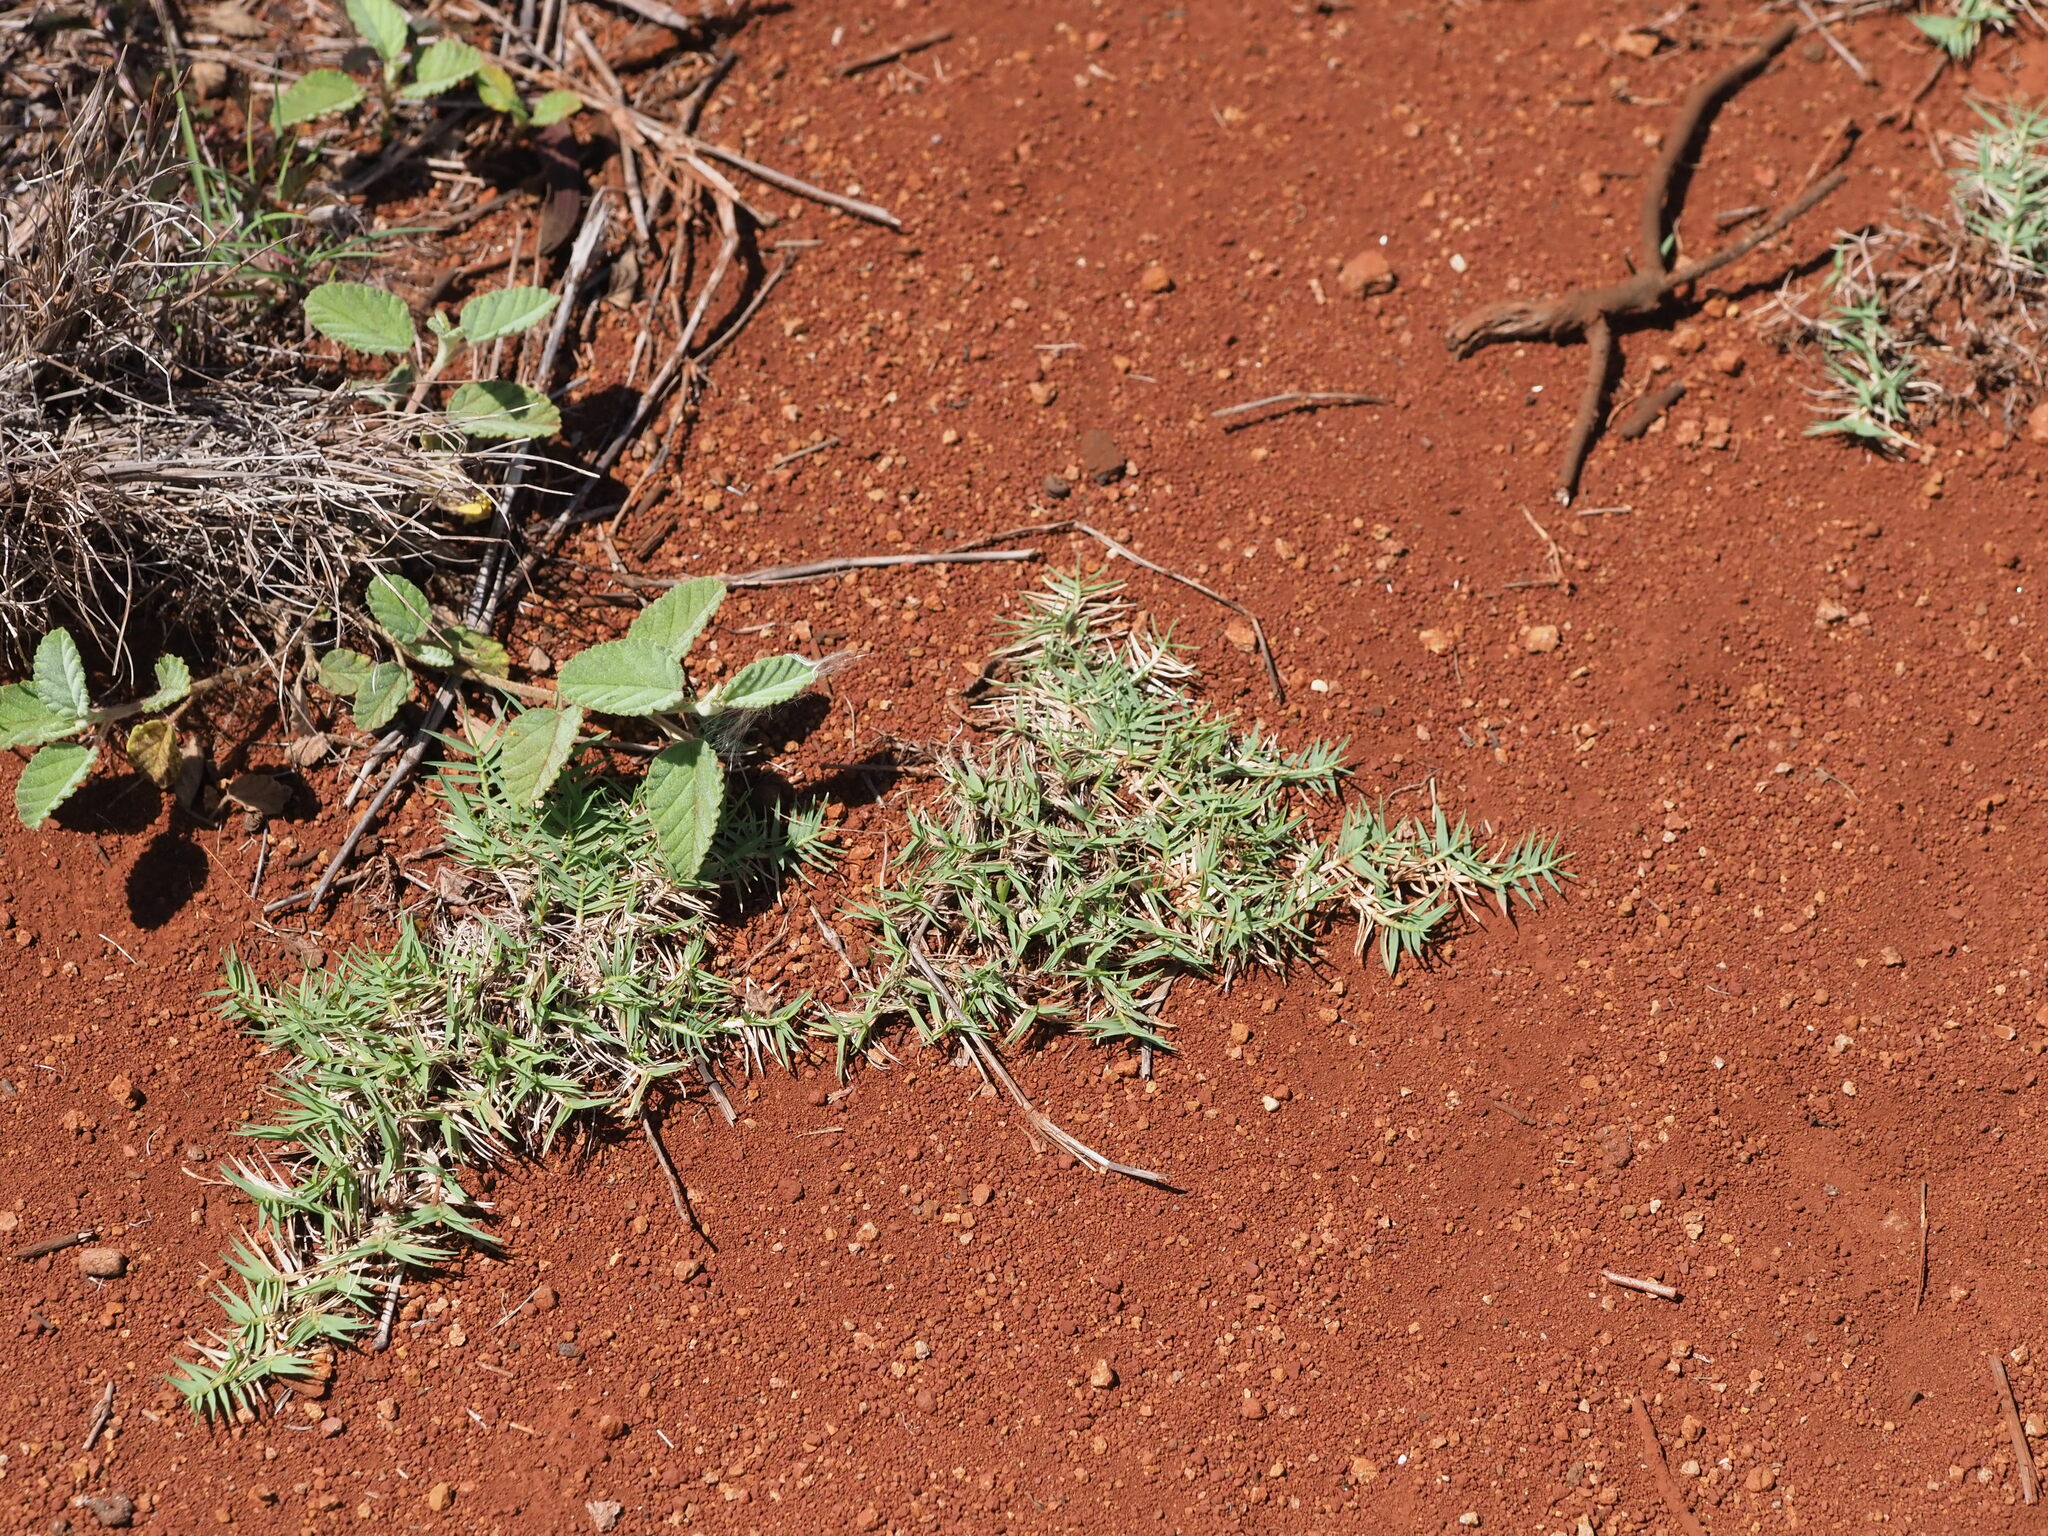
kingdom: Plantae
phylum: Tracheophyta
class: Liliopsida
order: Poales
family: Poaceae
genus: Cynodon
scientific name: Cynodon dactylon
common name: Bermuda grass
